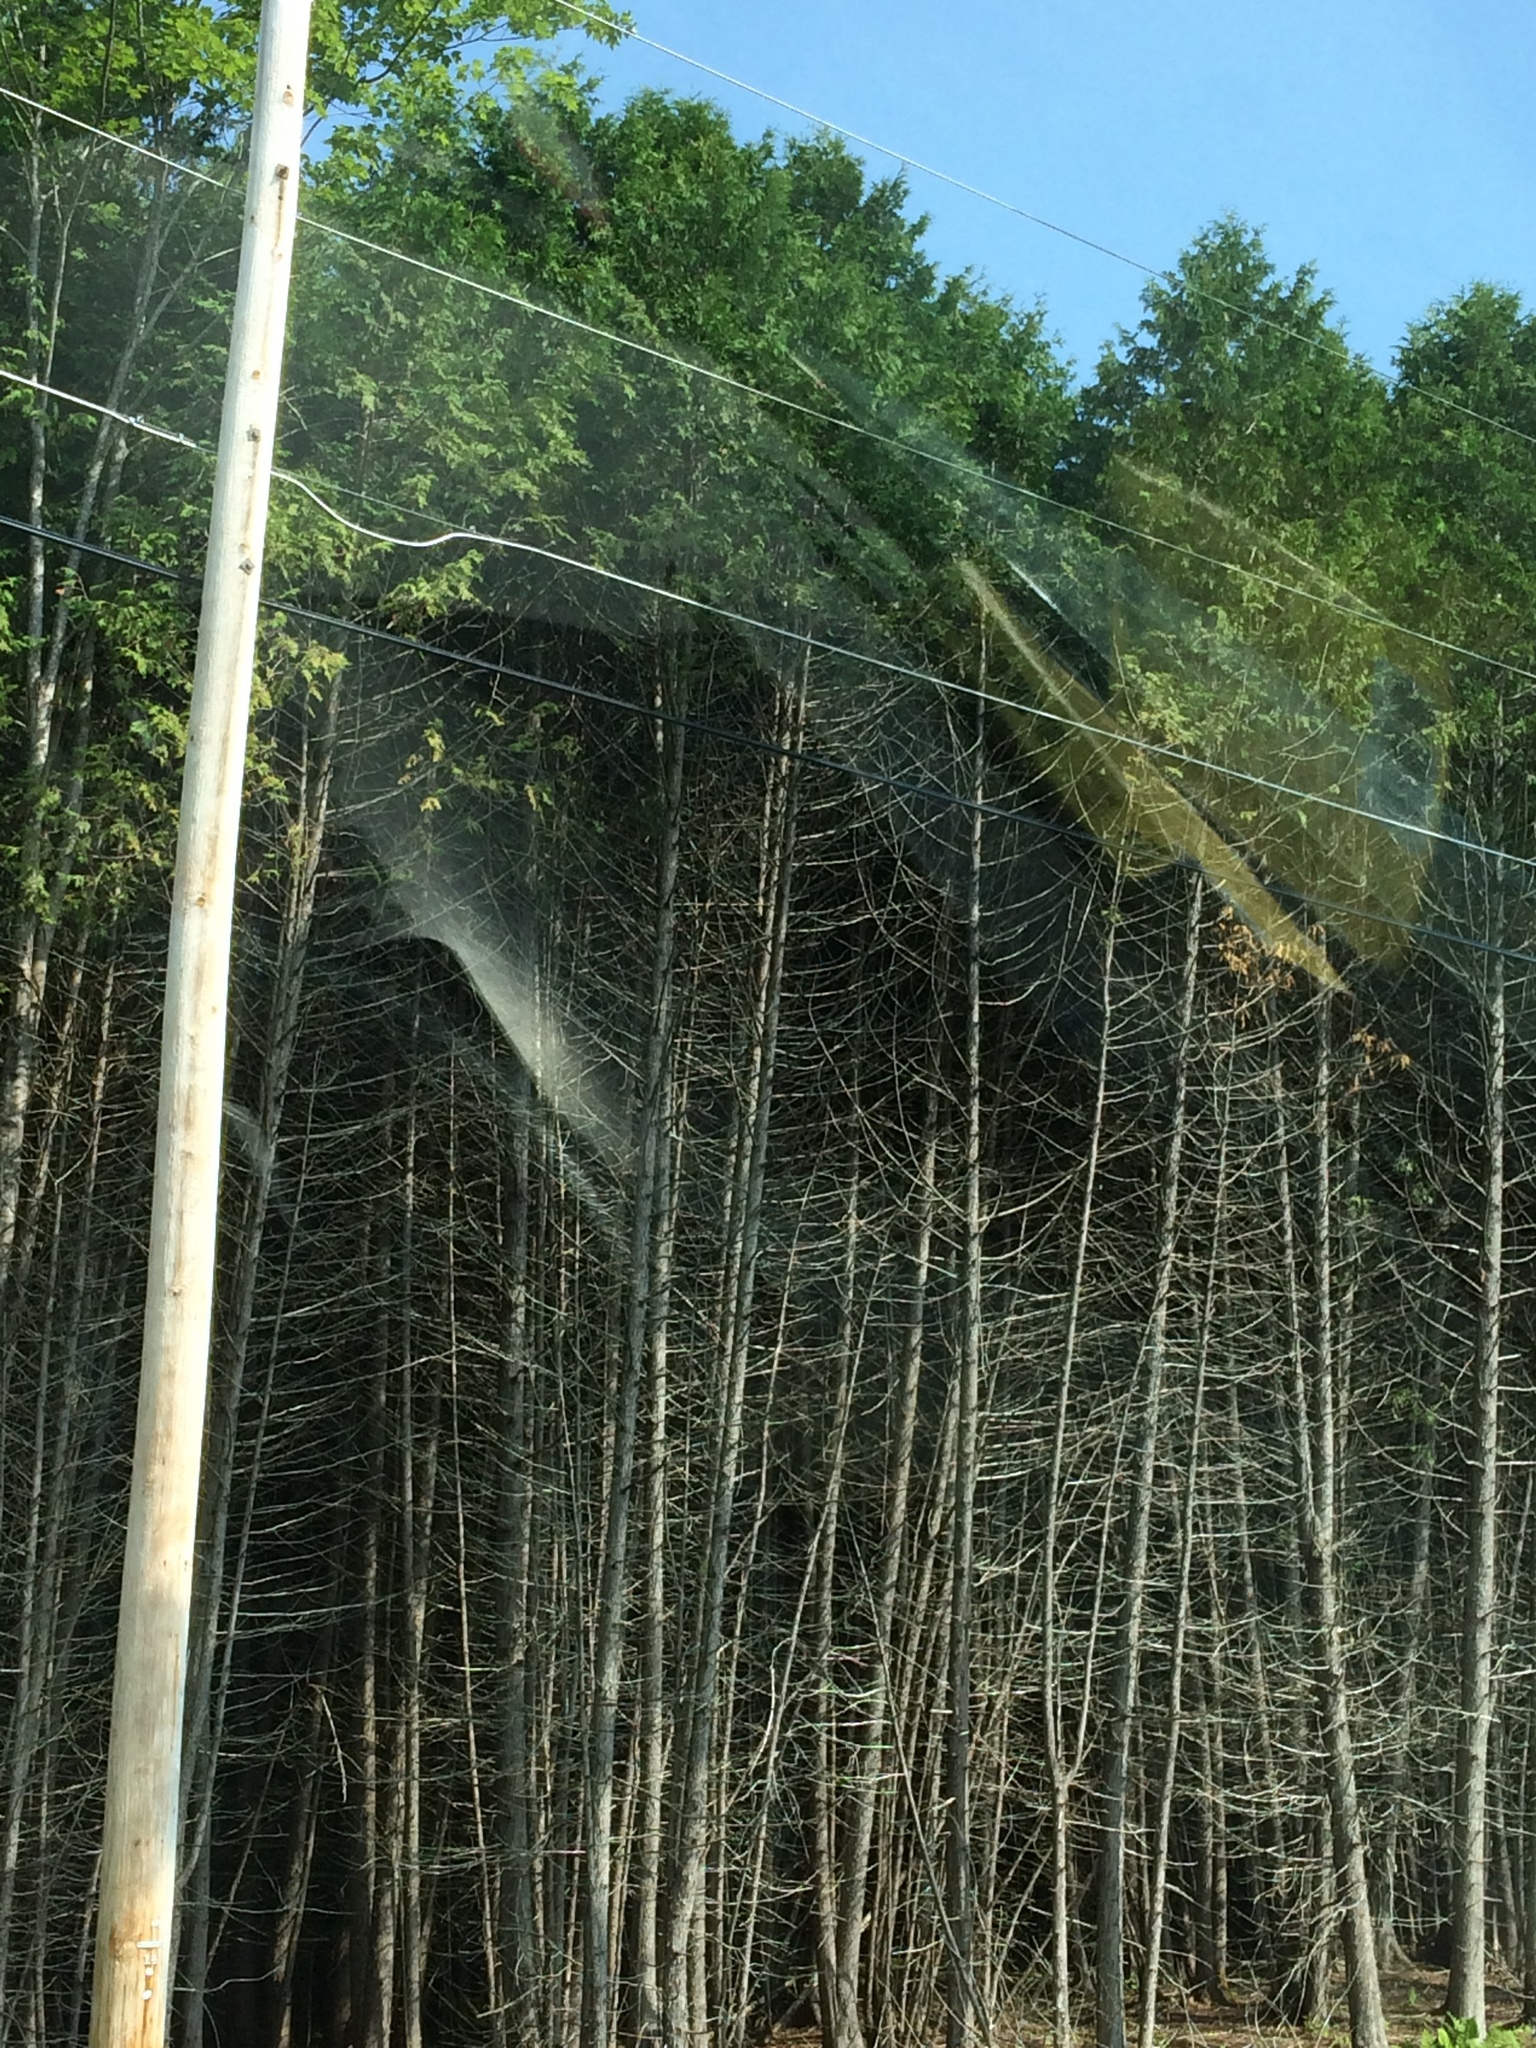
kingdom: Plantae
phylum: Tracheophyta
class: Pinopsida
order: Pinales
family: Cupressaceae
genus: Thuja
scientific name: Thuja occidentalis
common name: Northern white-cedar
